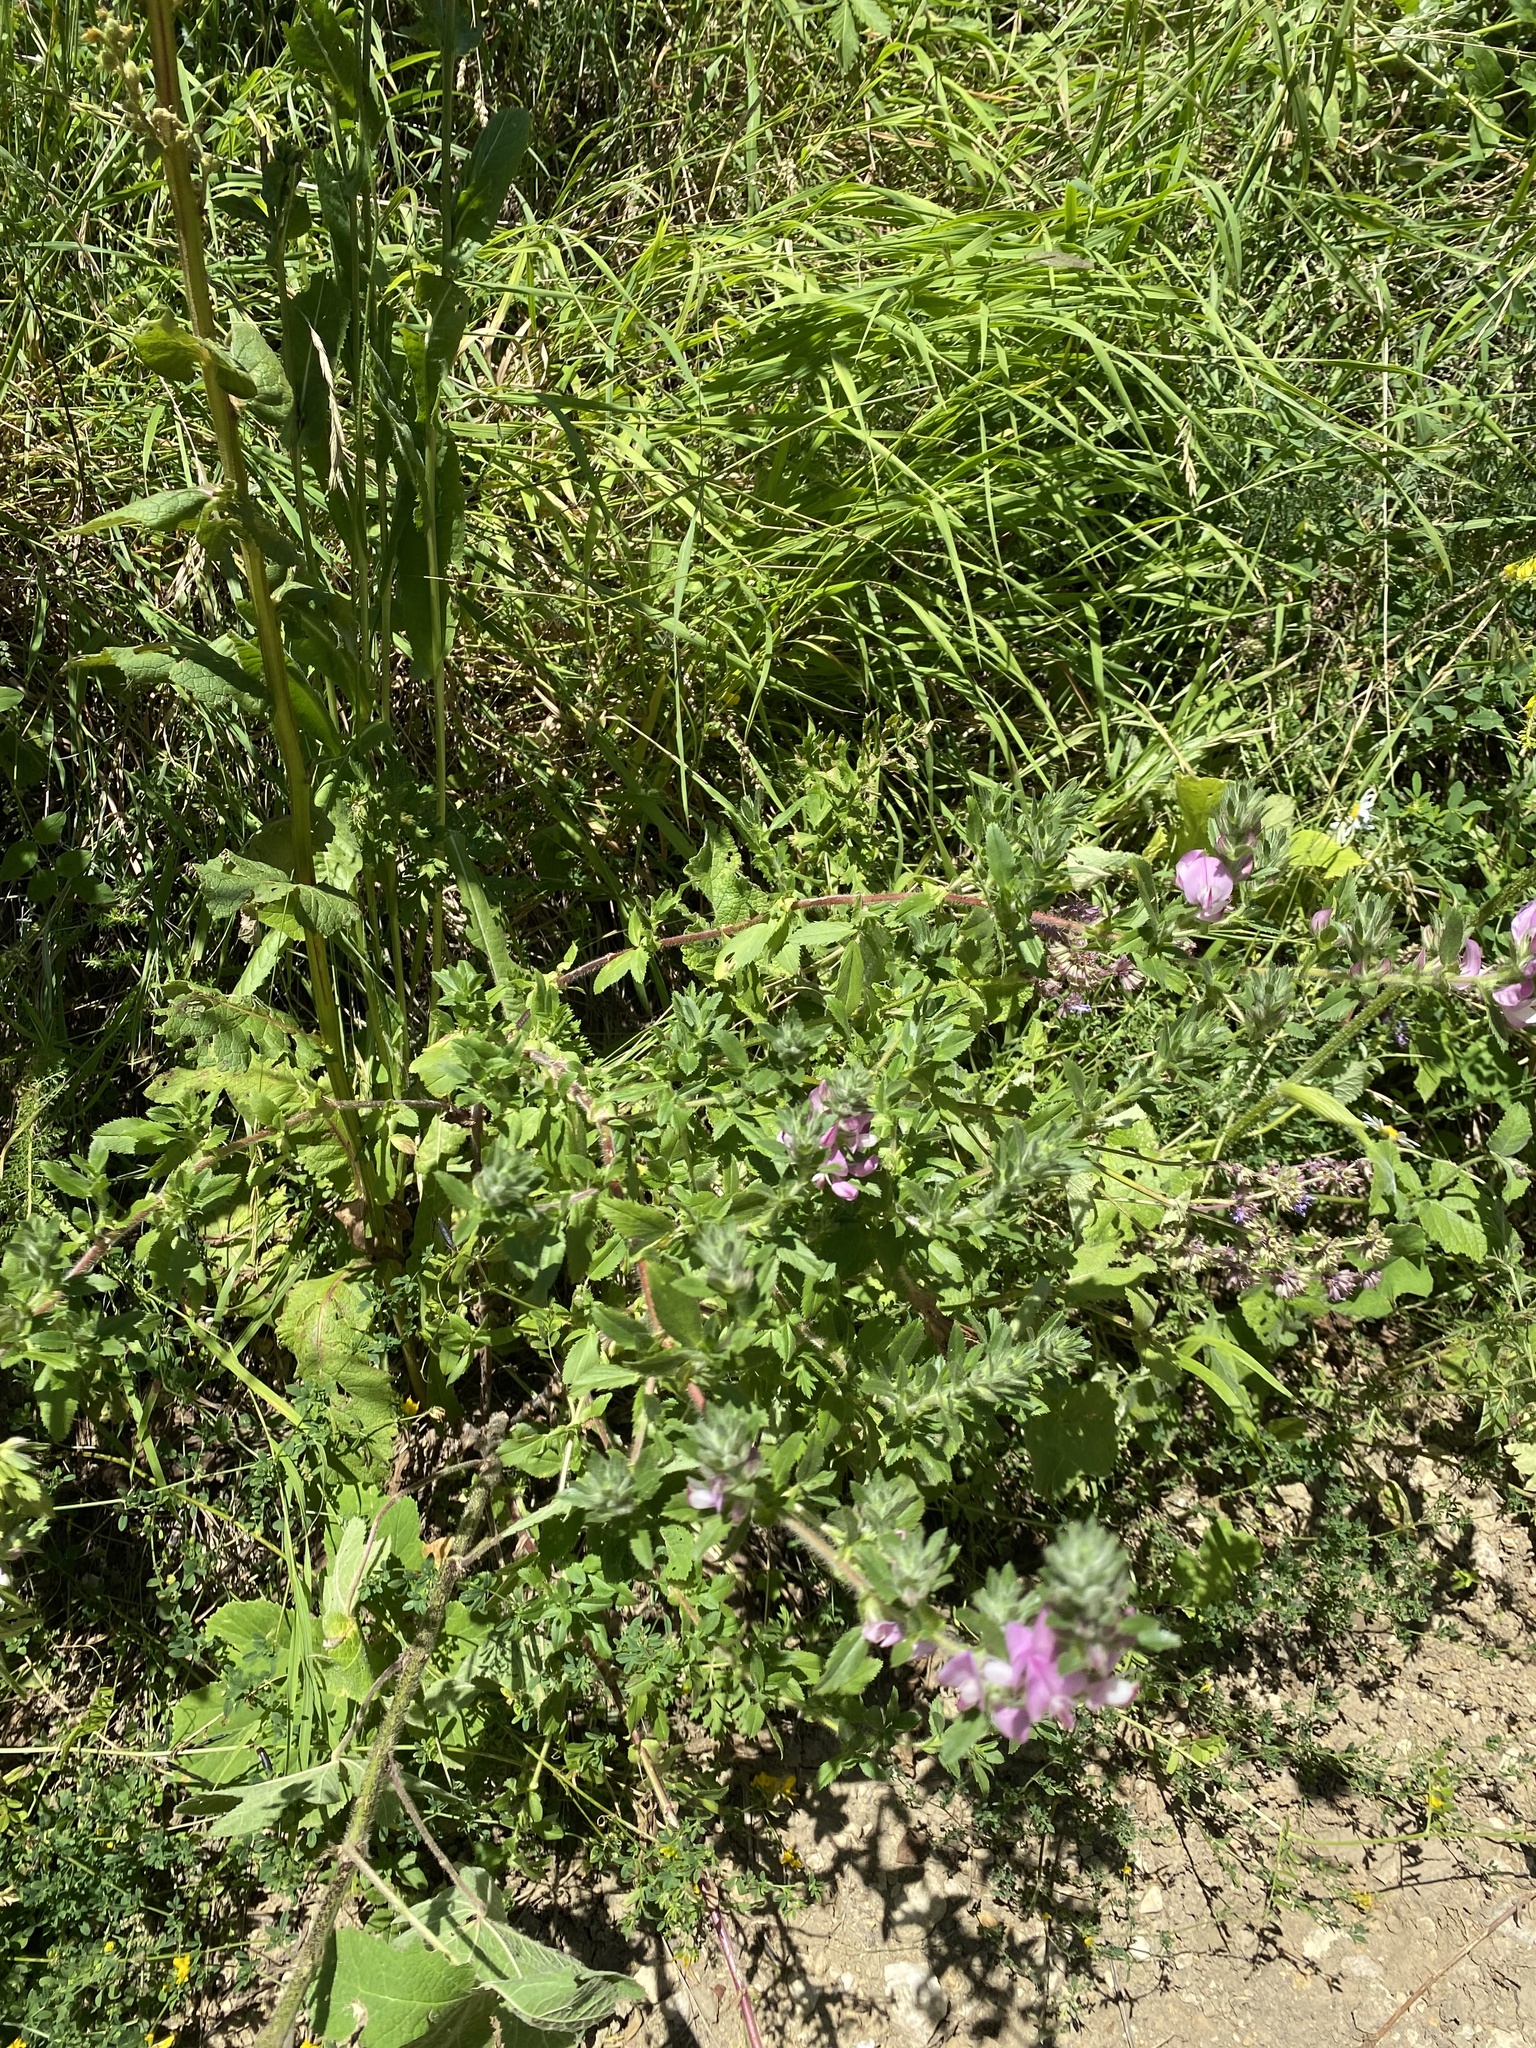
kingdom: Plantae
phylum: Tracheophyta
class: Magnoliopsida
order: Fabales
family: Fabaceae
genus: Ononis
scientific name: Ononis arvensis
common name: Field restharrow
